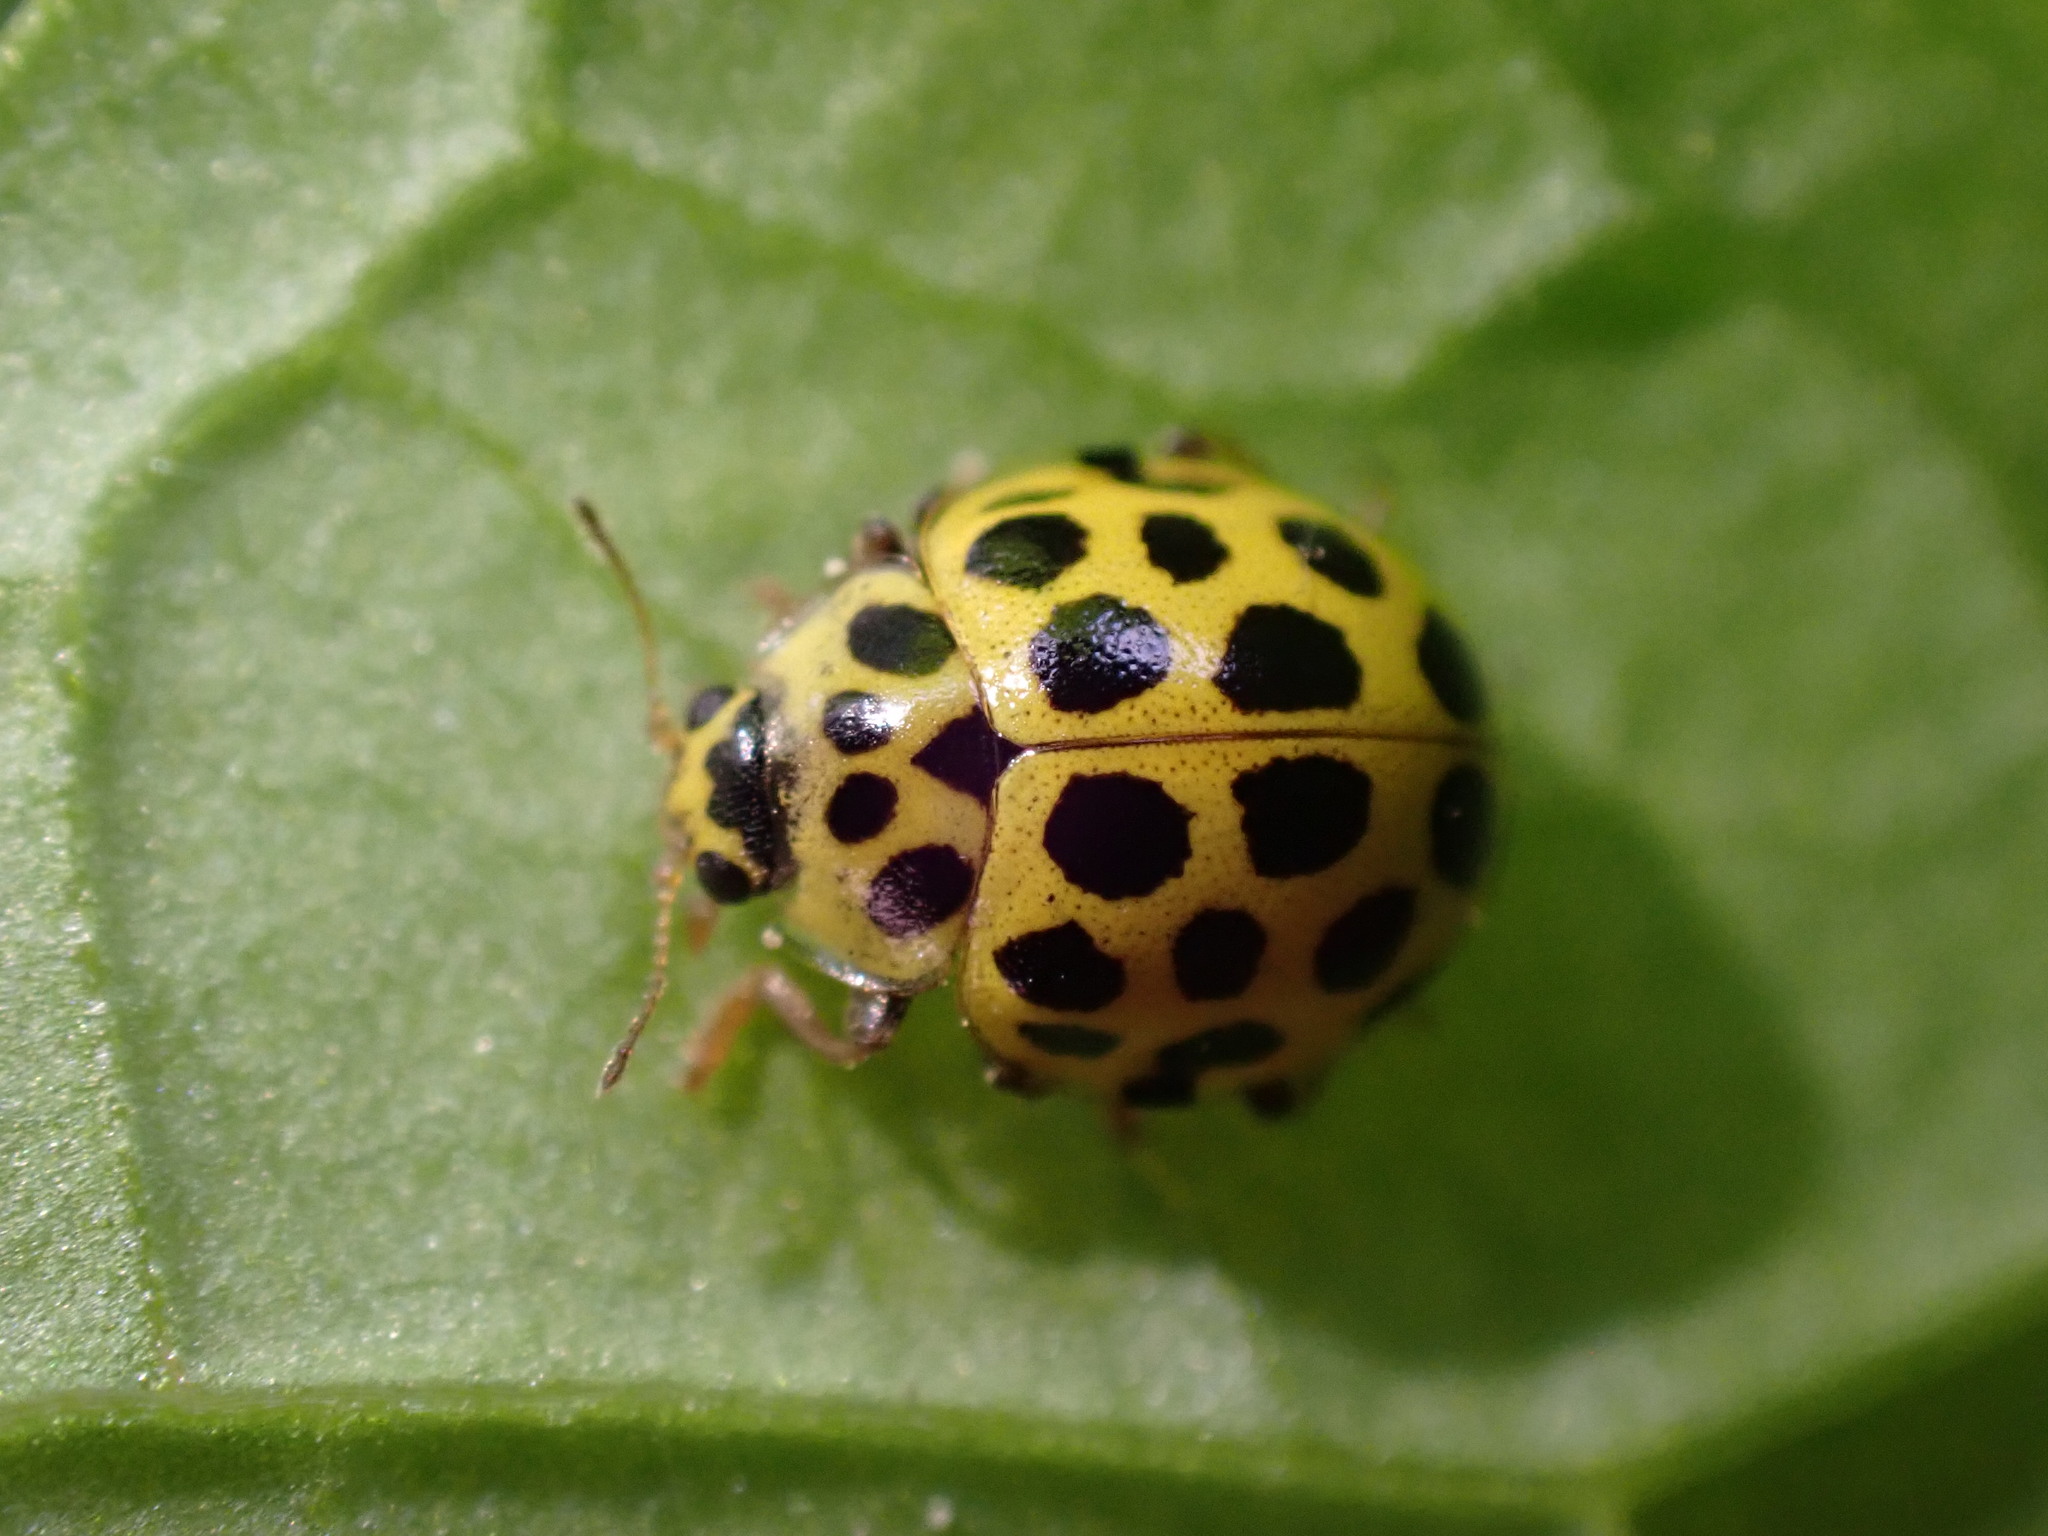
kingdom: Animalia
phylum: Arthropoda
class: Insecta
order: Coleoptera
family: Coccinellidae
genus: Psyllobora
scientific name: Psyllobora vigintiduopunctata
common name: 22-spot ladybird
